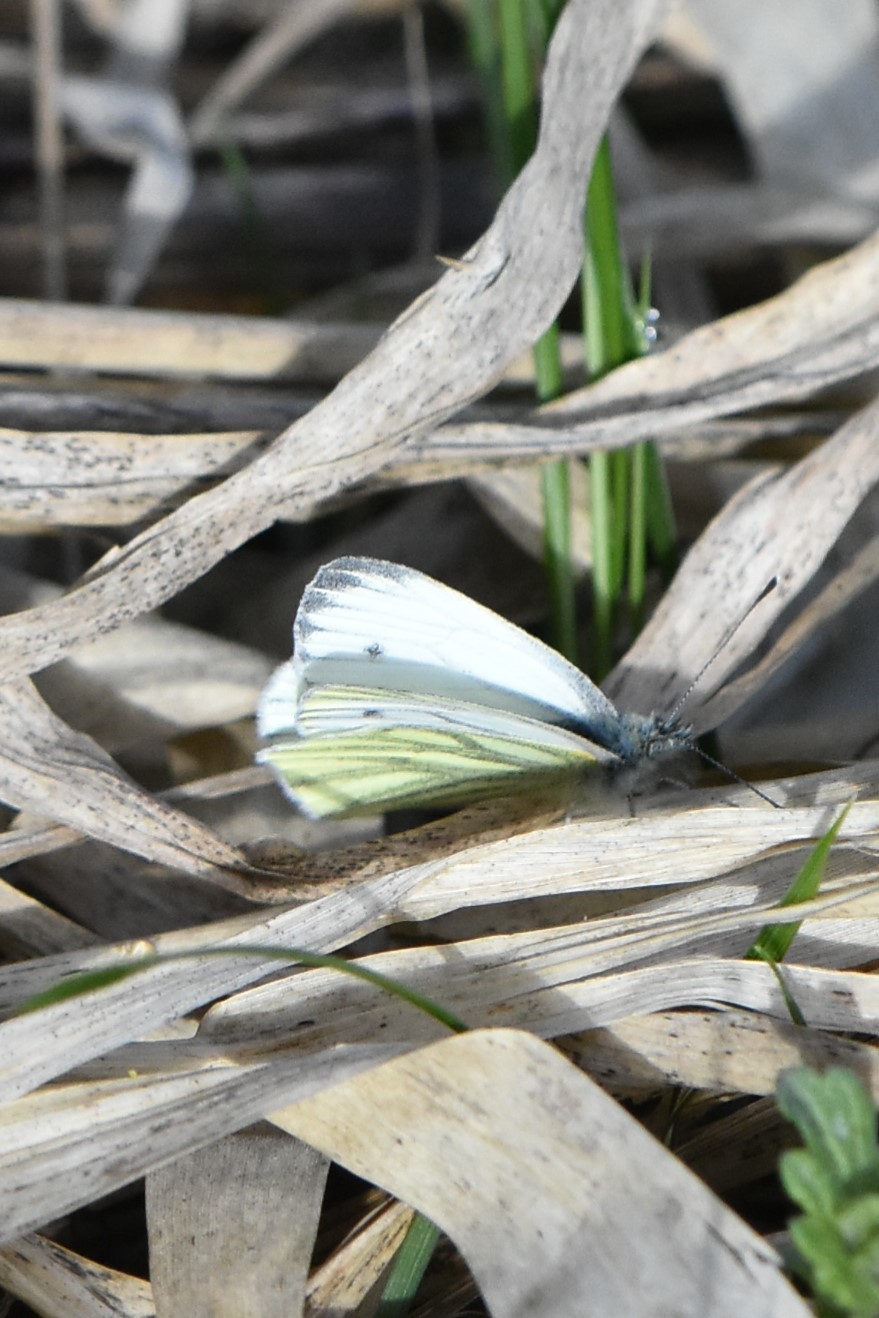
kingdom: Animalia
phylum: Arthropoda
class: Insecta
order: Lepidoptera
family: Pieridae
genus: Pieris
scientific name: Pieris napi
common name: Green-veined white
